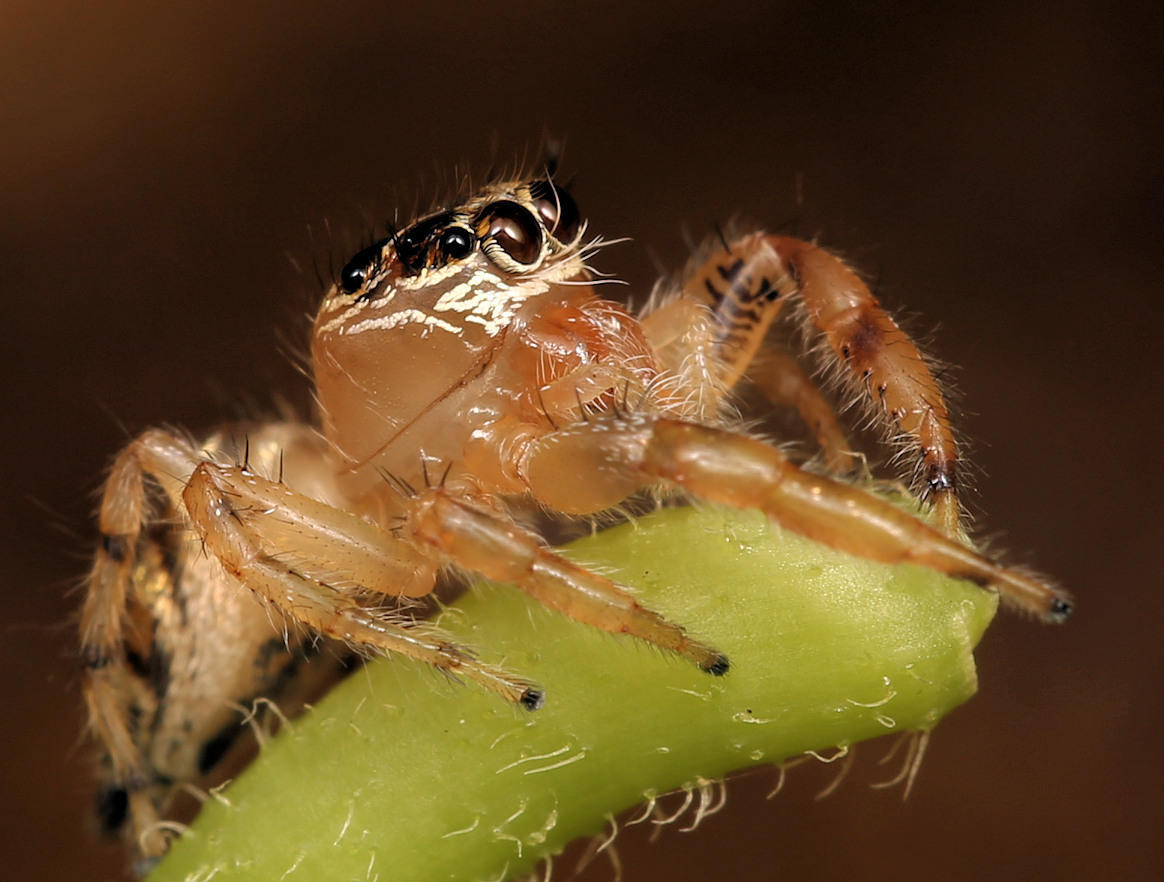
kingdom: Animalia
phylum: Arthropoda
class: Arachnida
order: Araneae
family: Salticidae
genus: Thyene
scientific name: Thyene natalii
